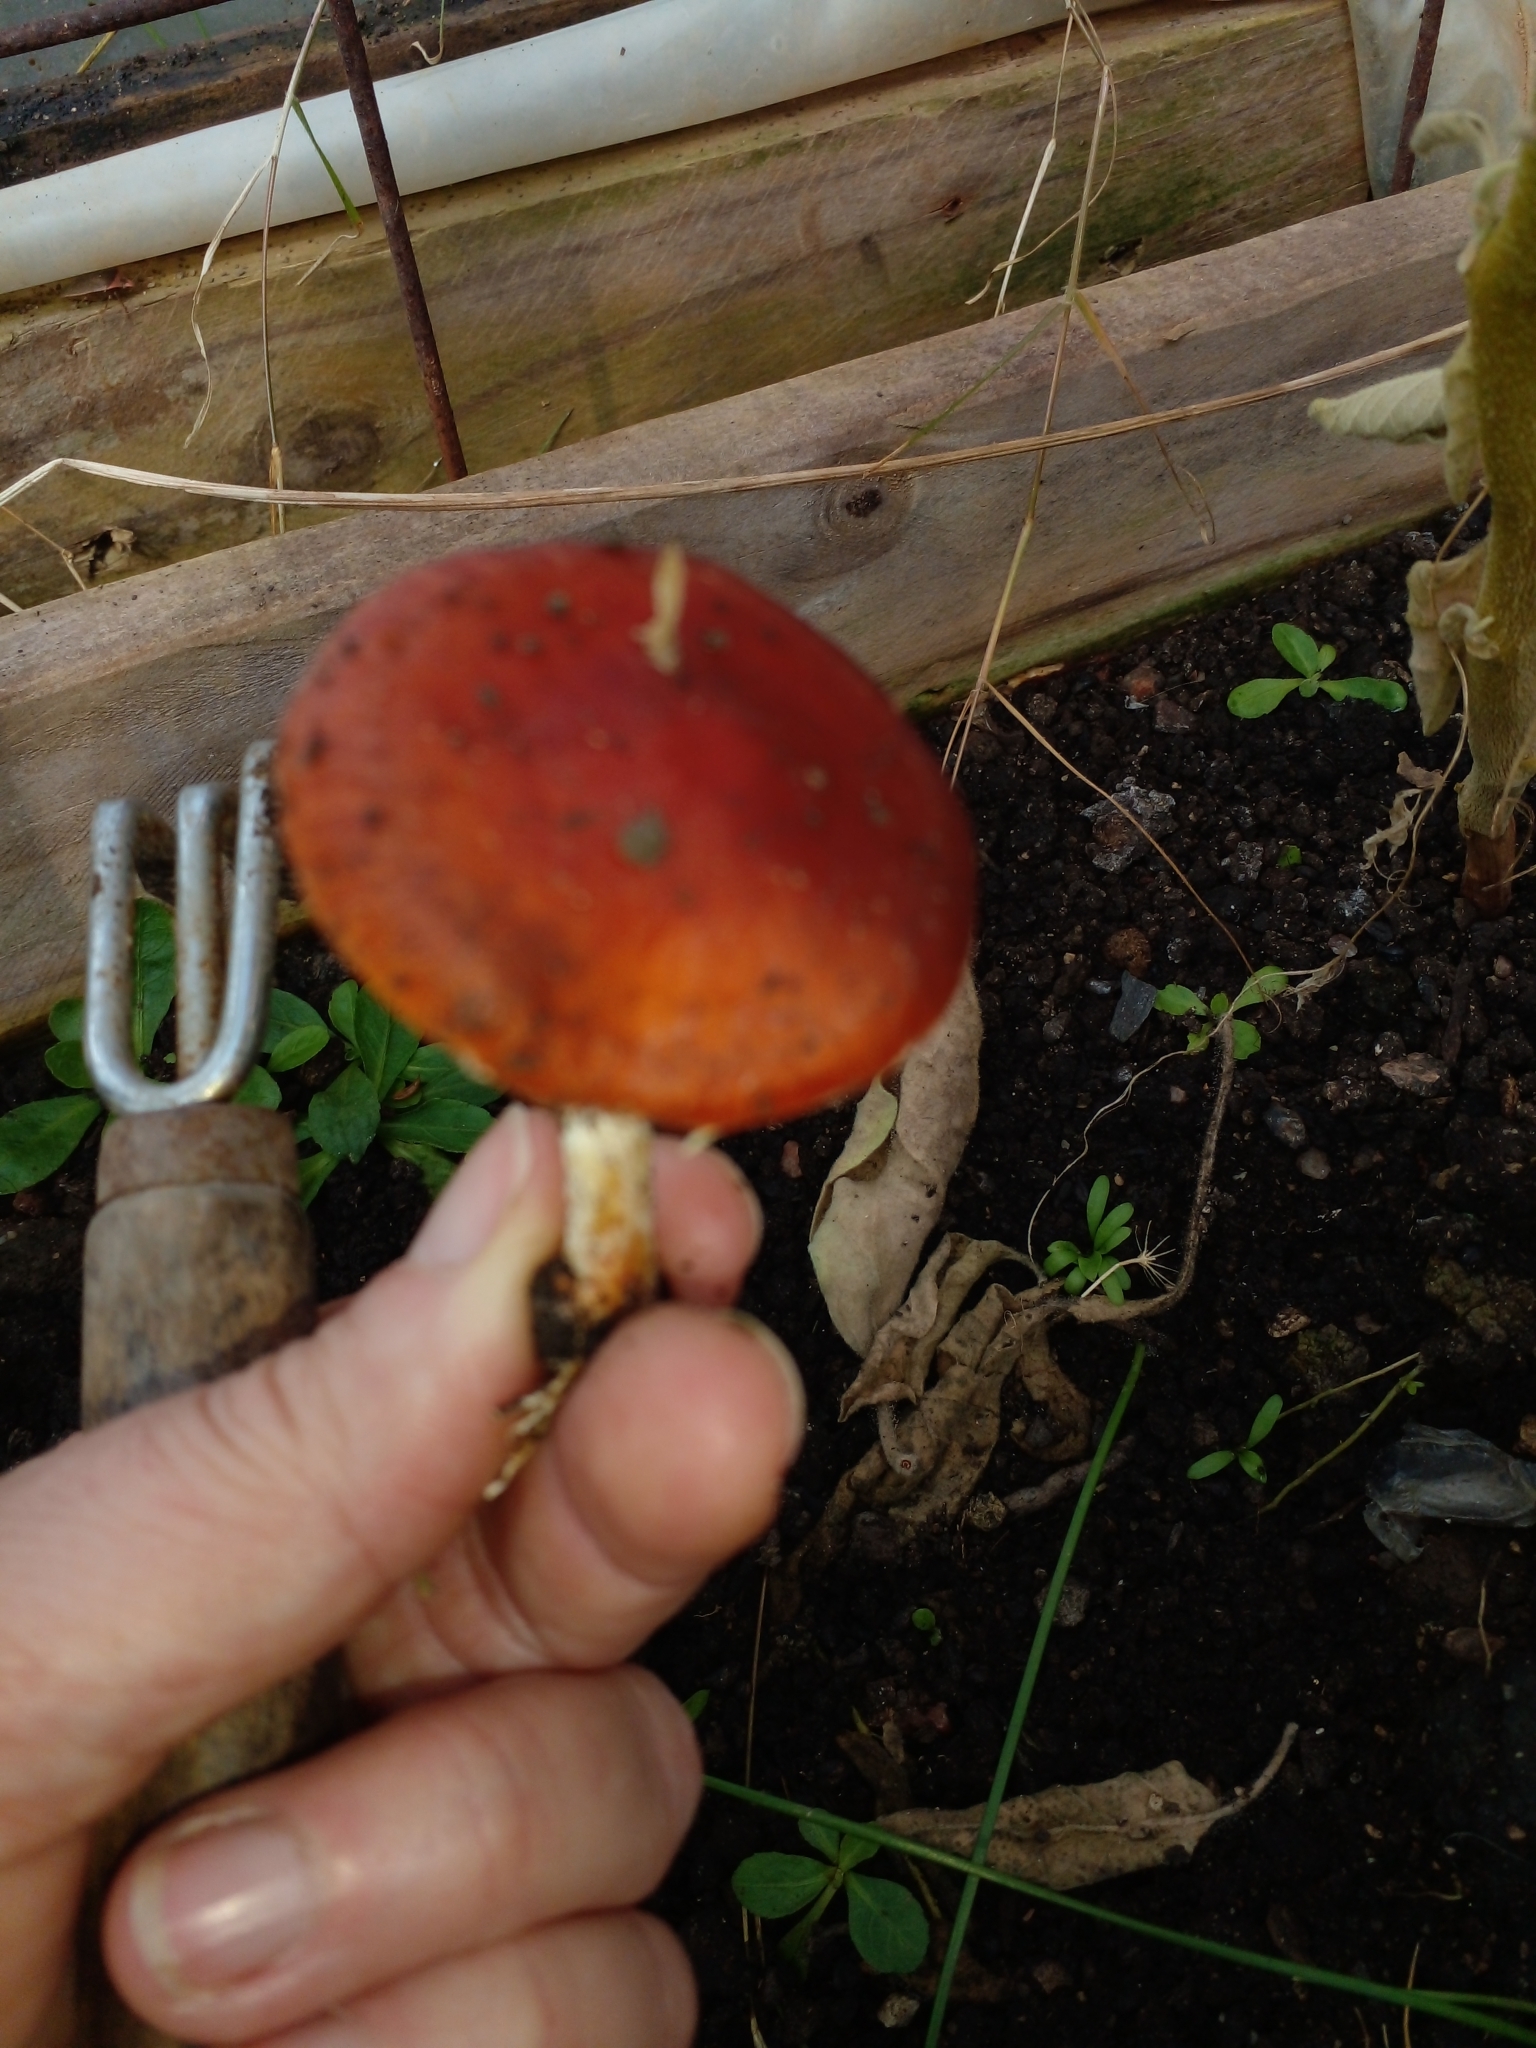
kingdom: Fungi
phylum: Basidiomycota
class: Agaricomycetes
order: Agaricales
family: Strophariaceae
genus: Leratiomyces
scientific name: Leratiomyces ceres
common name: Redlead roundhead
